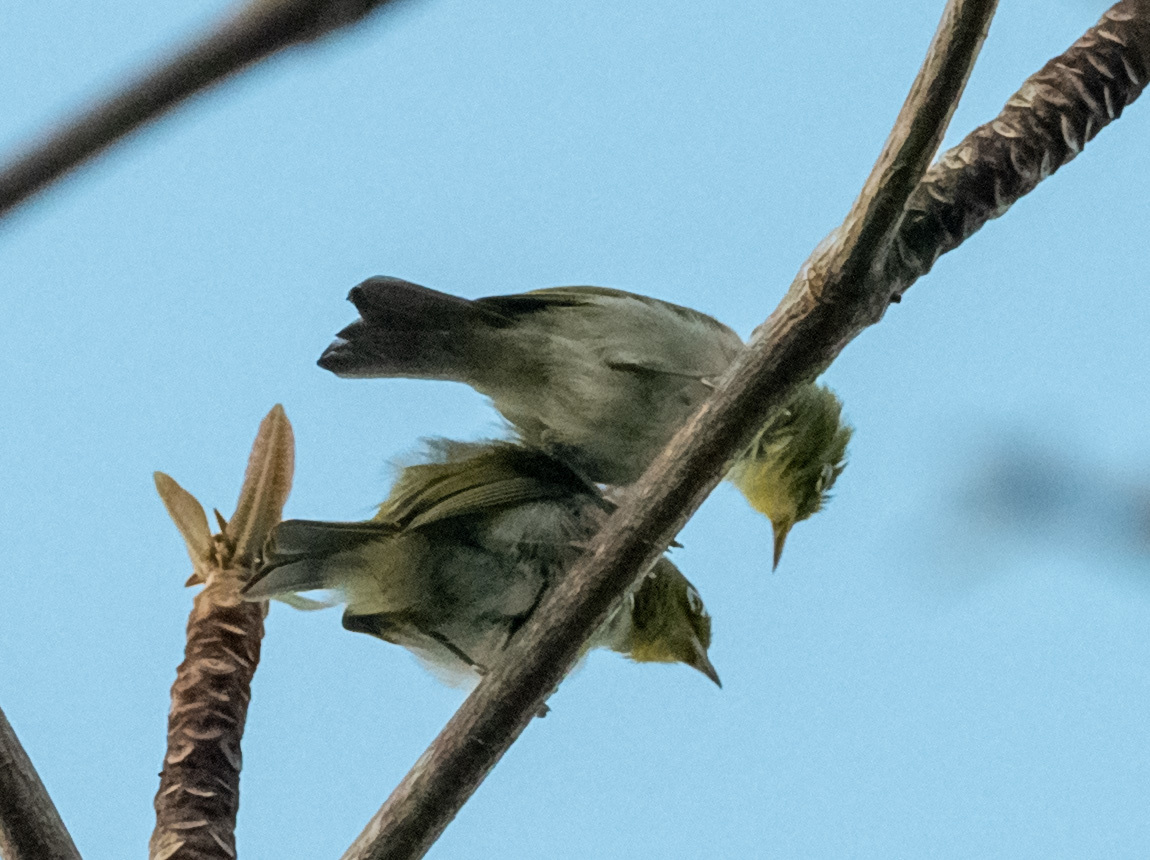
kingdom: Animalia
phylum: Chordata
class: Aves
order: Passeriformes
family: Zosteropidae
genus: Zosterops
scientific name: Zosterops lateralis
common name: Silvereye
